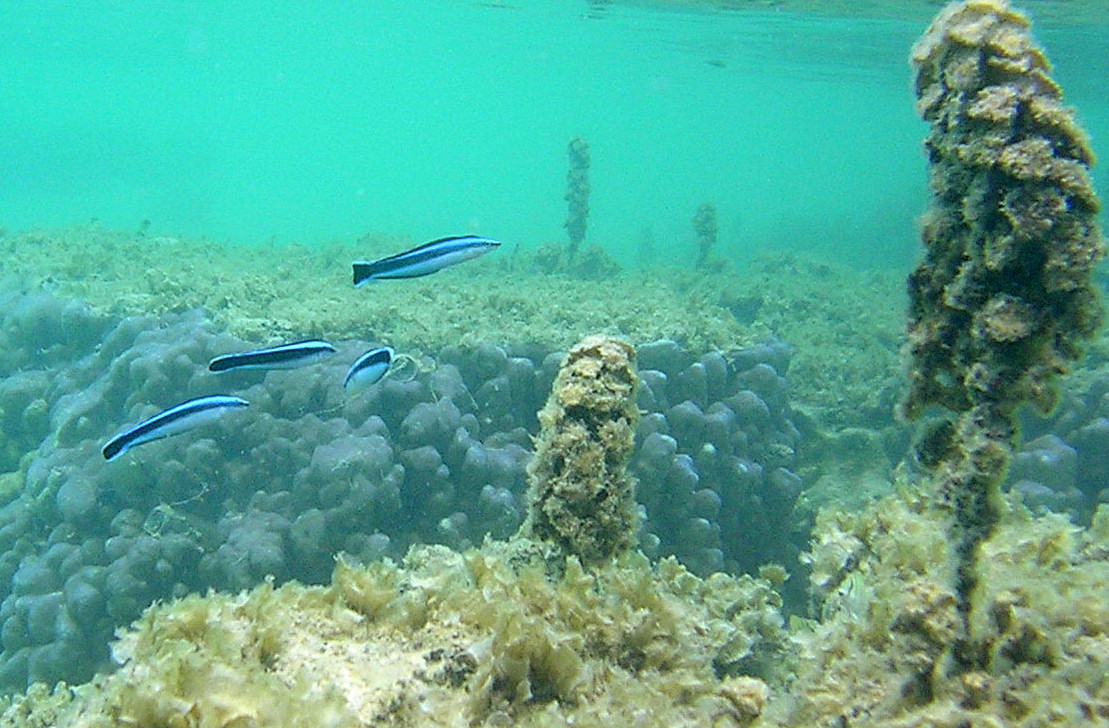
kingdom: Animalia
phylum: Chordata
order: Perciformes
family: Blenniidae
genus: Aspidontus
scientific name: Aspidontus taeniatus
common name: False cleanerfish
